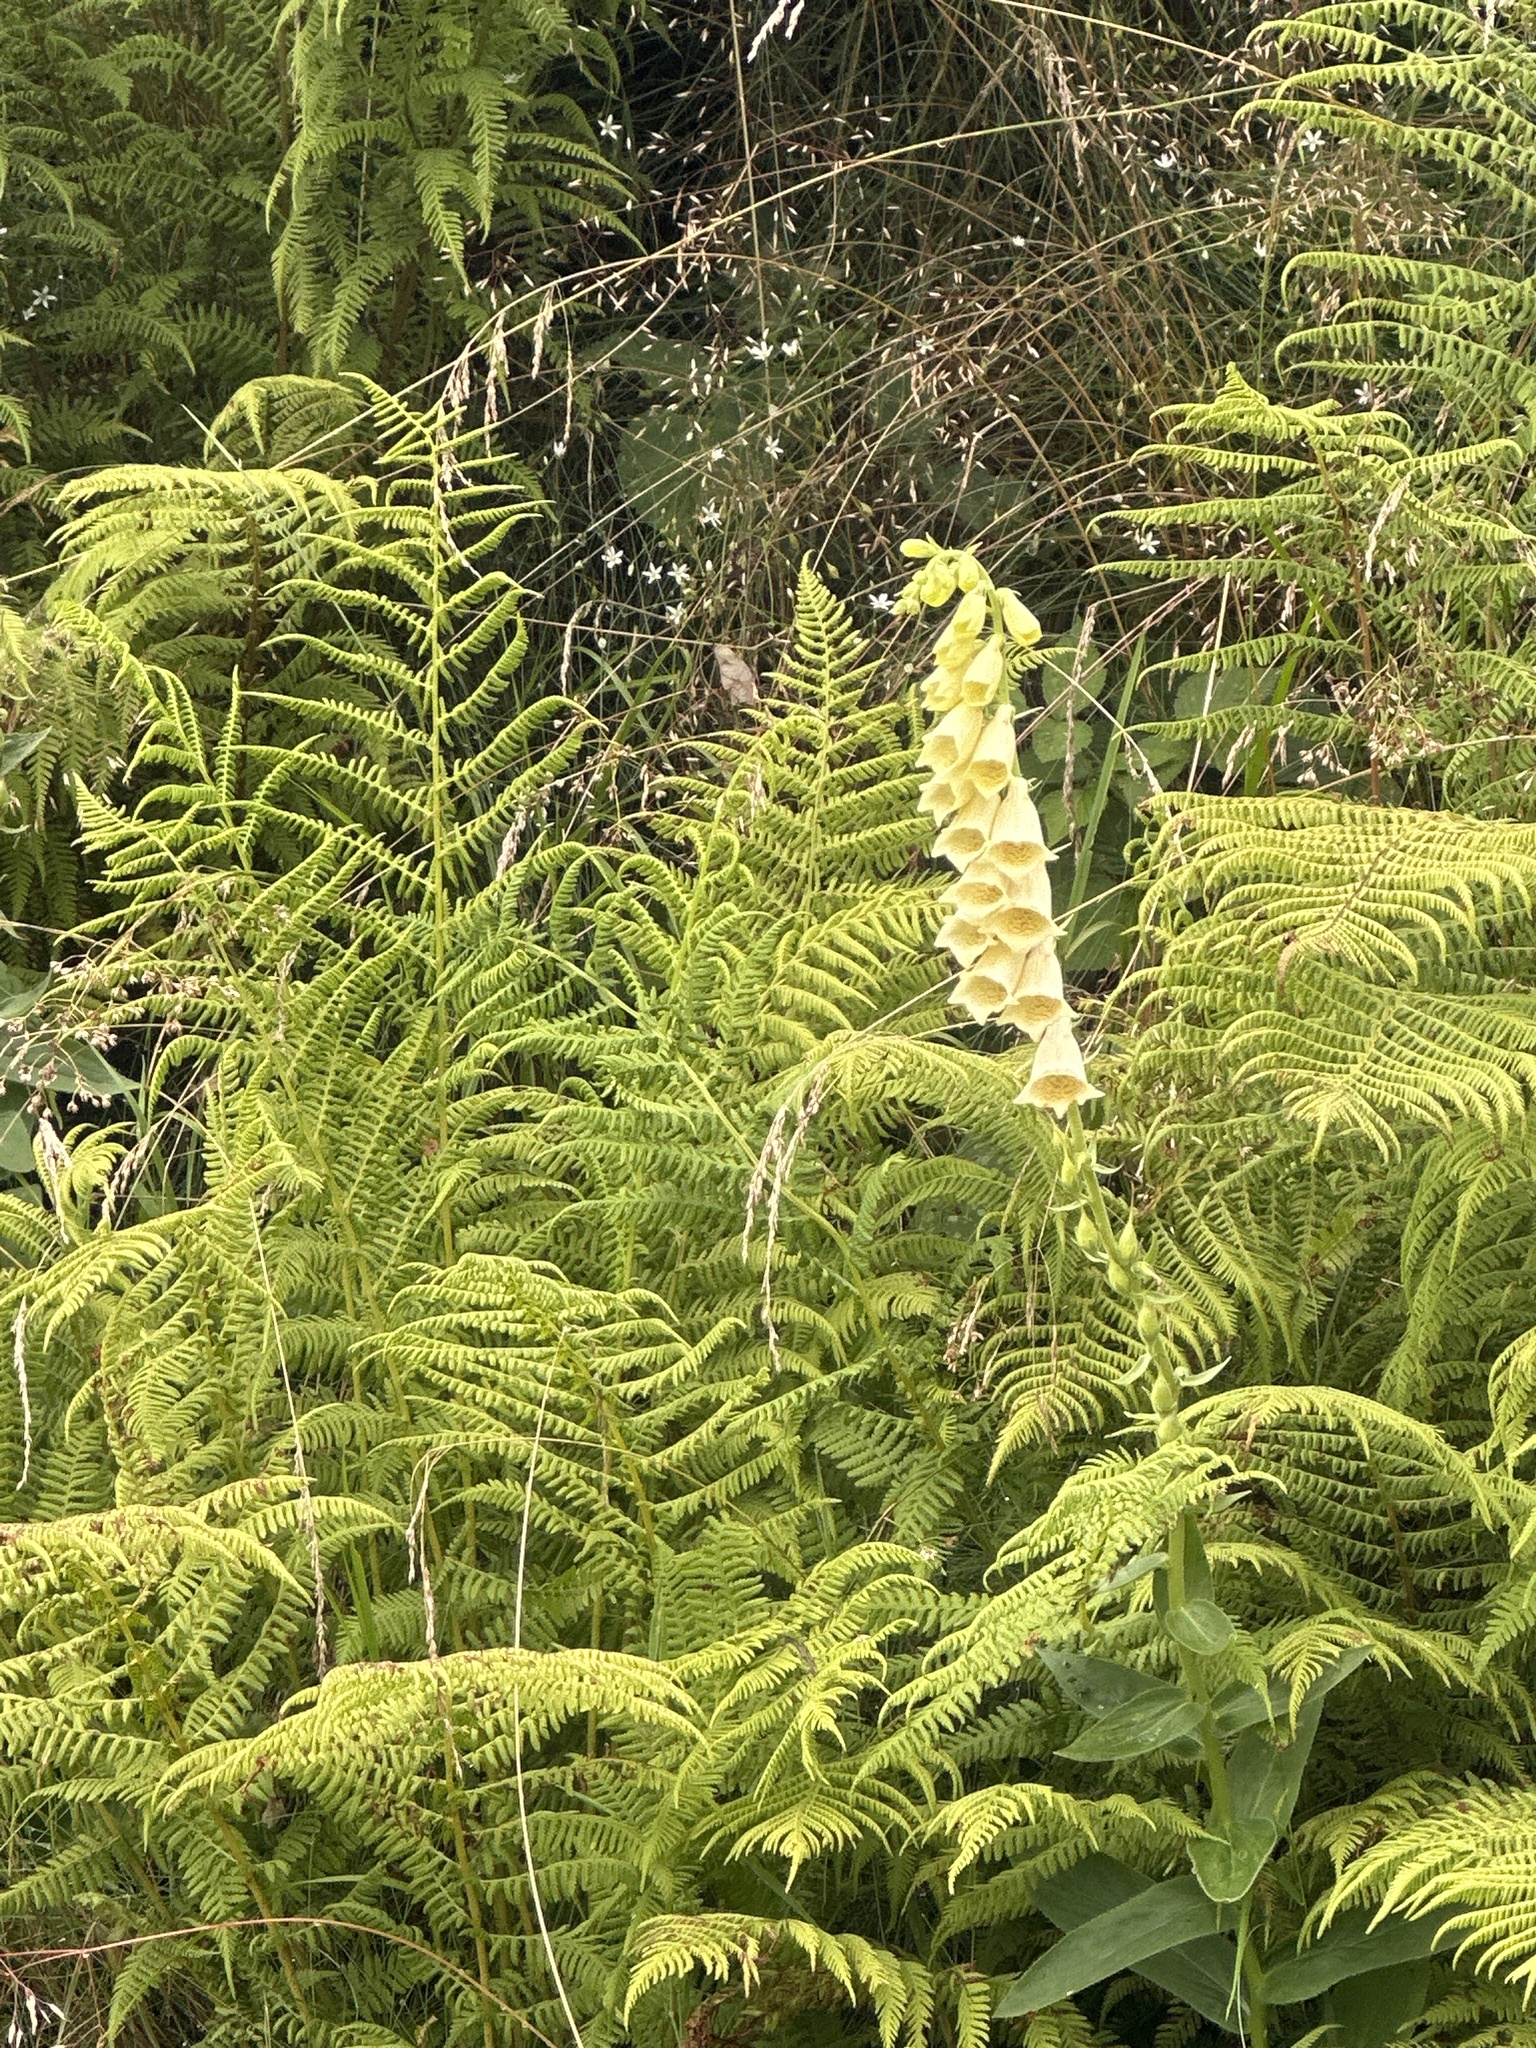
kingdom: Plantae
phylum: Tracheophyta
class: Magnoliopsida
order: Lamiales
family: Plantaginaceae
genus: Digitalis
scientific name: Digitalis grandiflora
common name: Yellow foxglove
